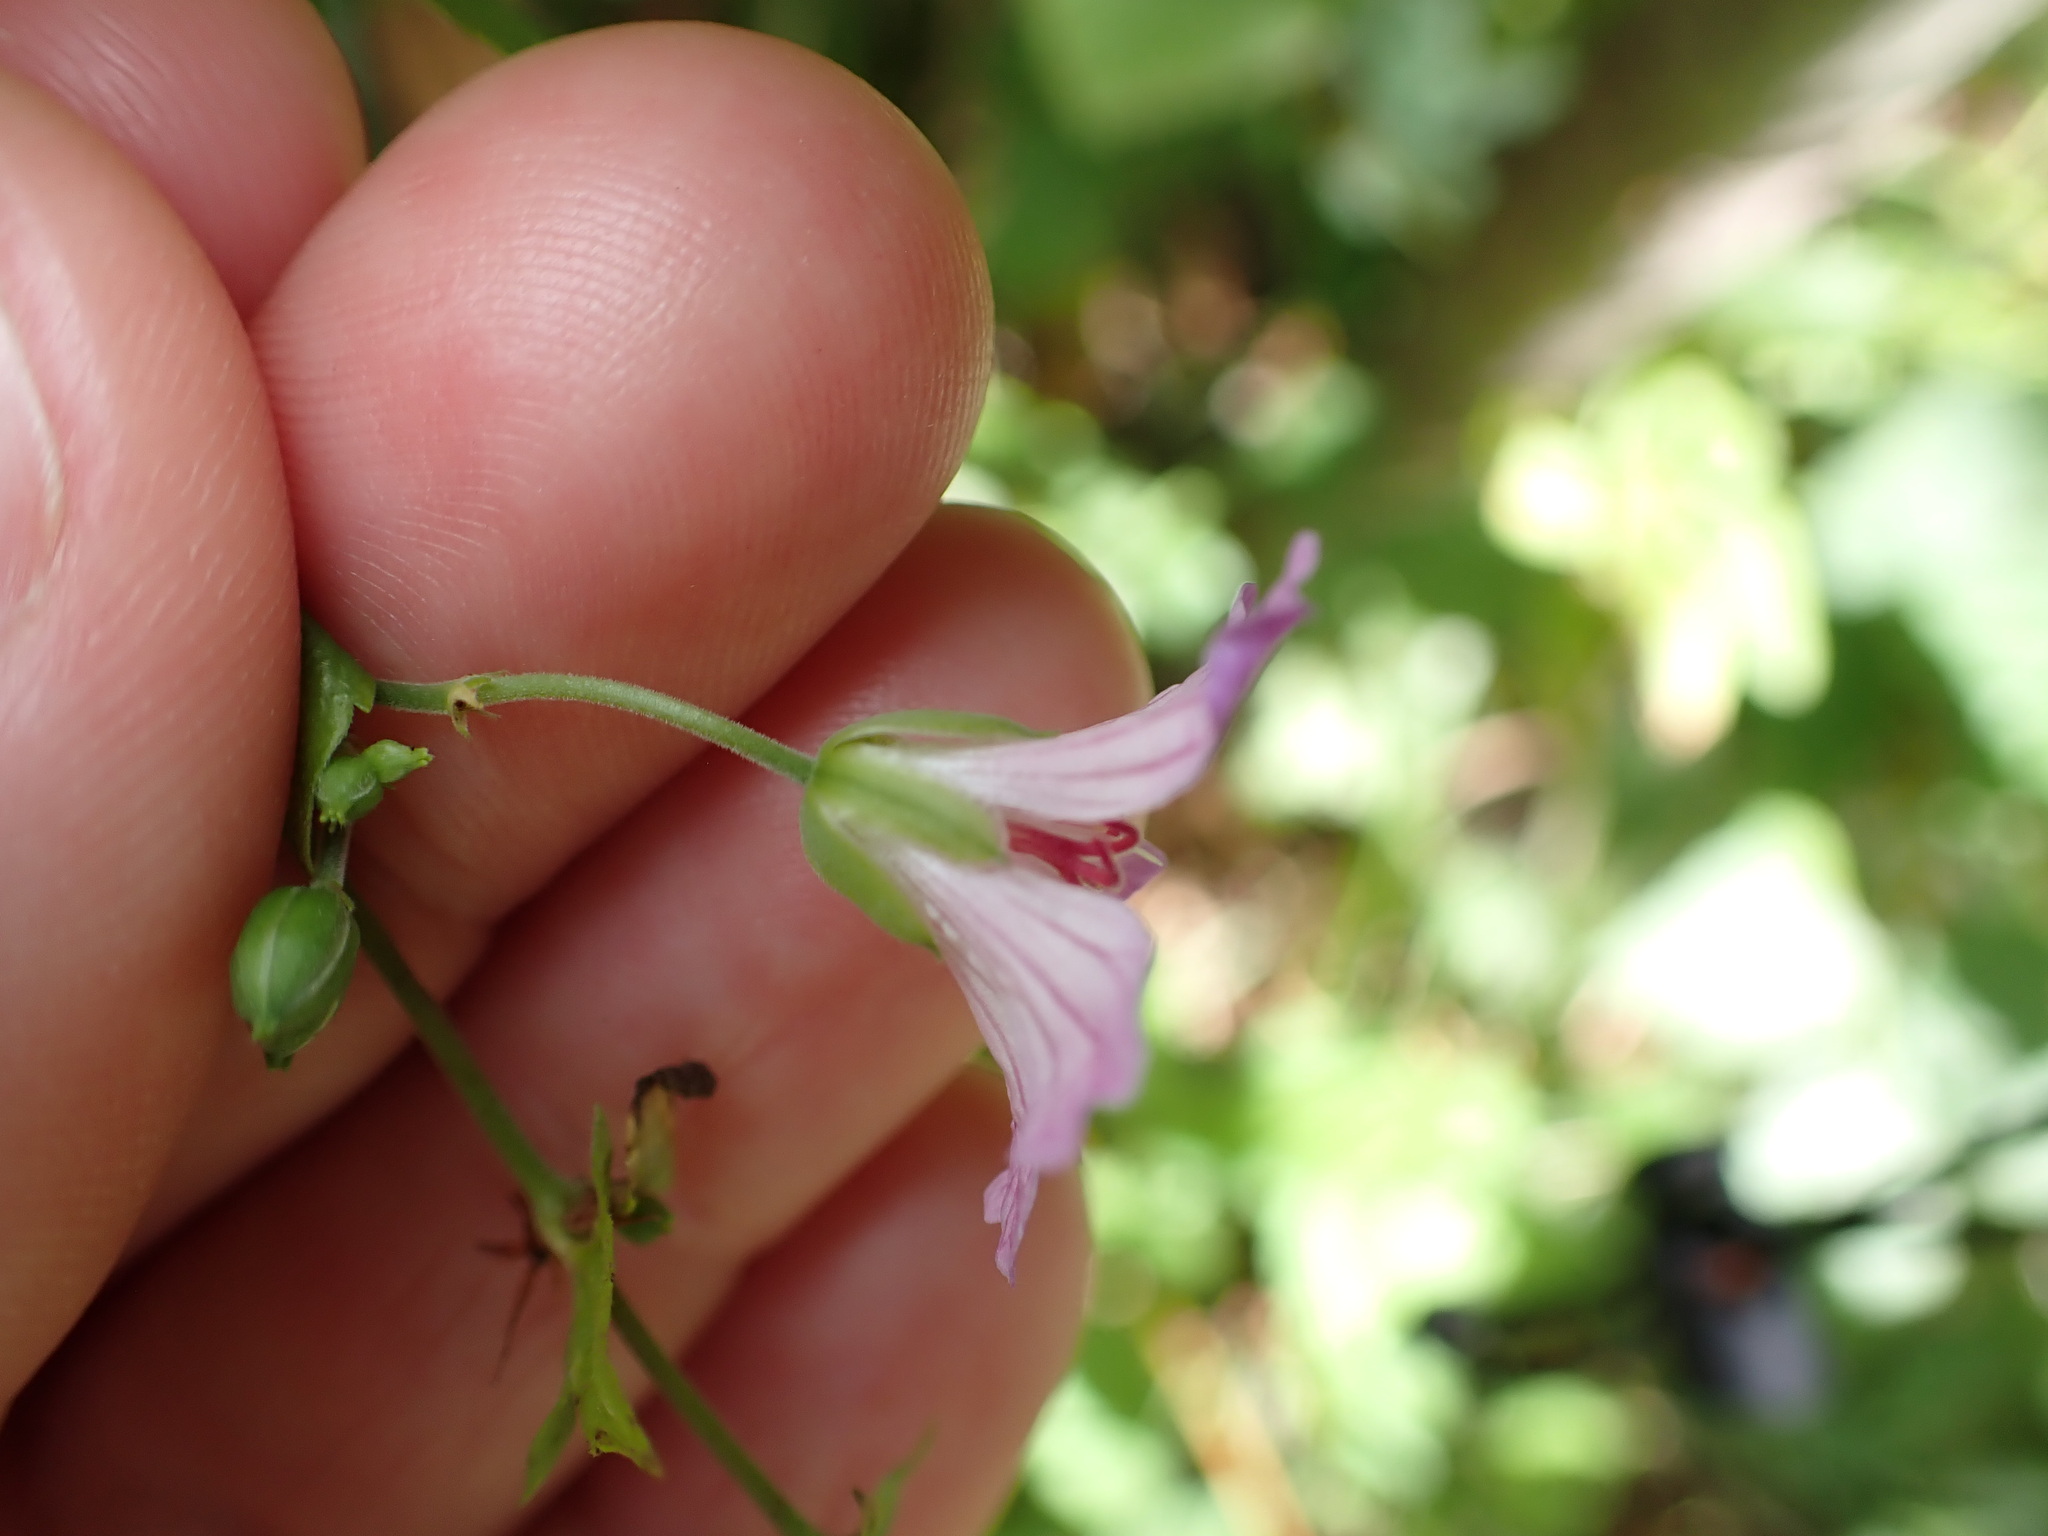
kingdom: Plantae
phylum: Tracheophyta
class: Magnoliopsida
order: Geraniales
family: Geraniaceae
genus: Geranium
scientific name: Geranium nodosum
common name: Knotted crane's-bill
